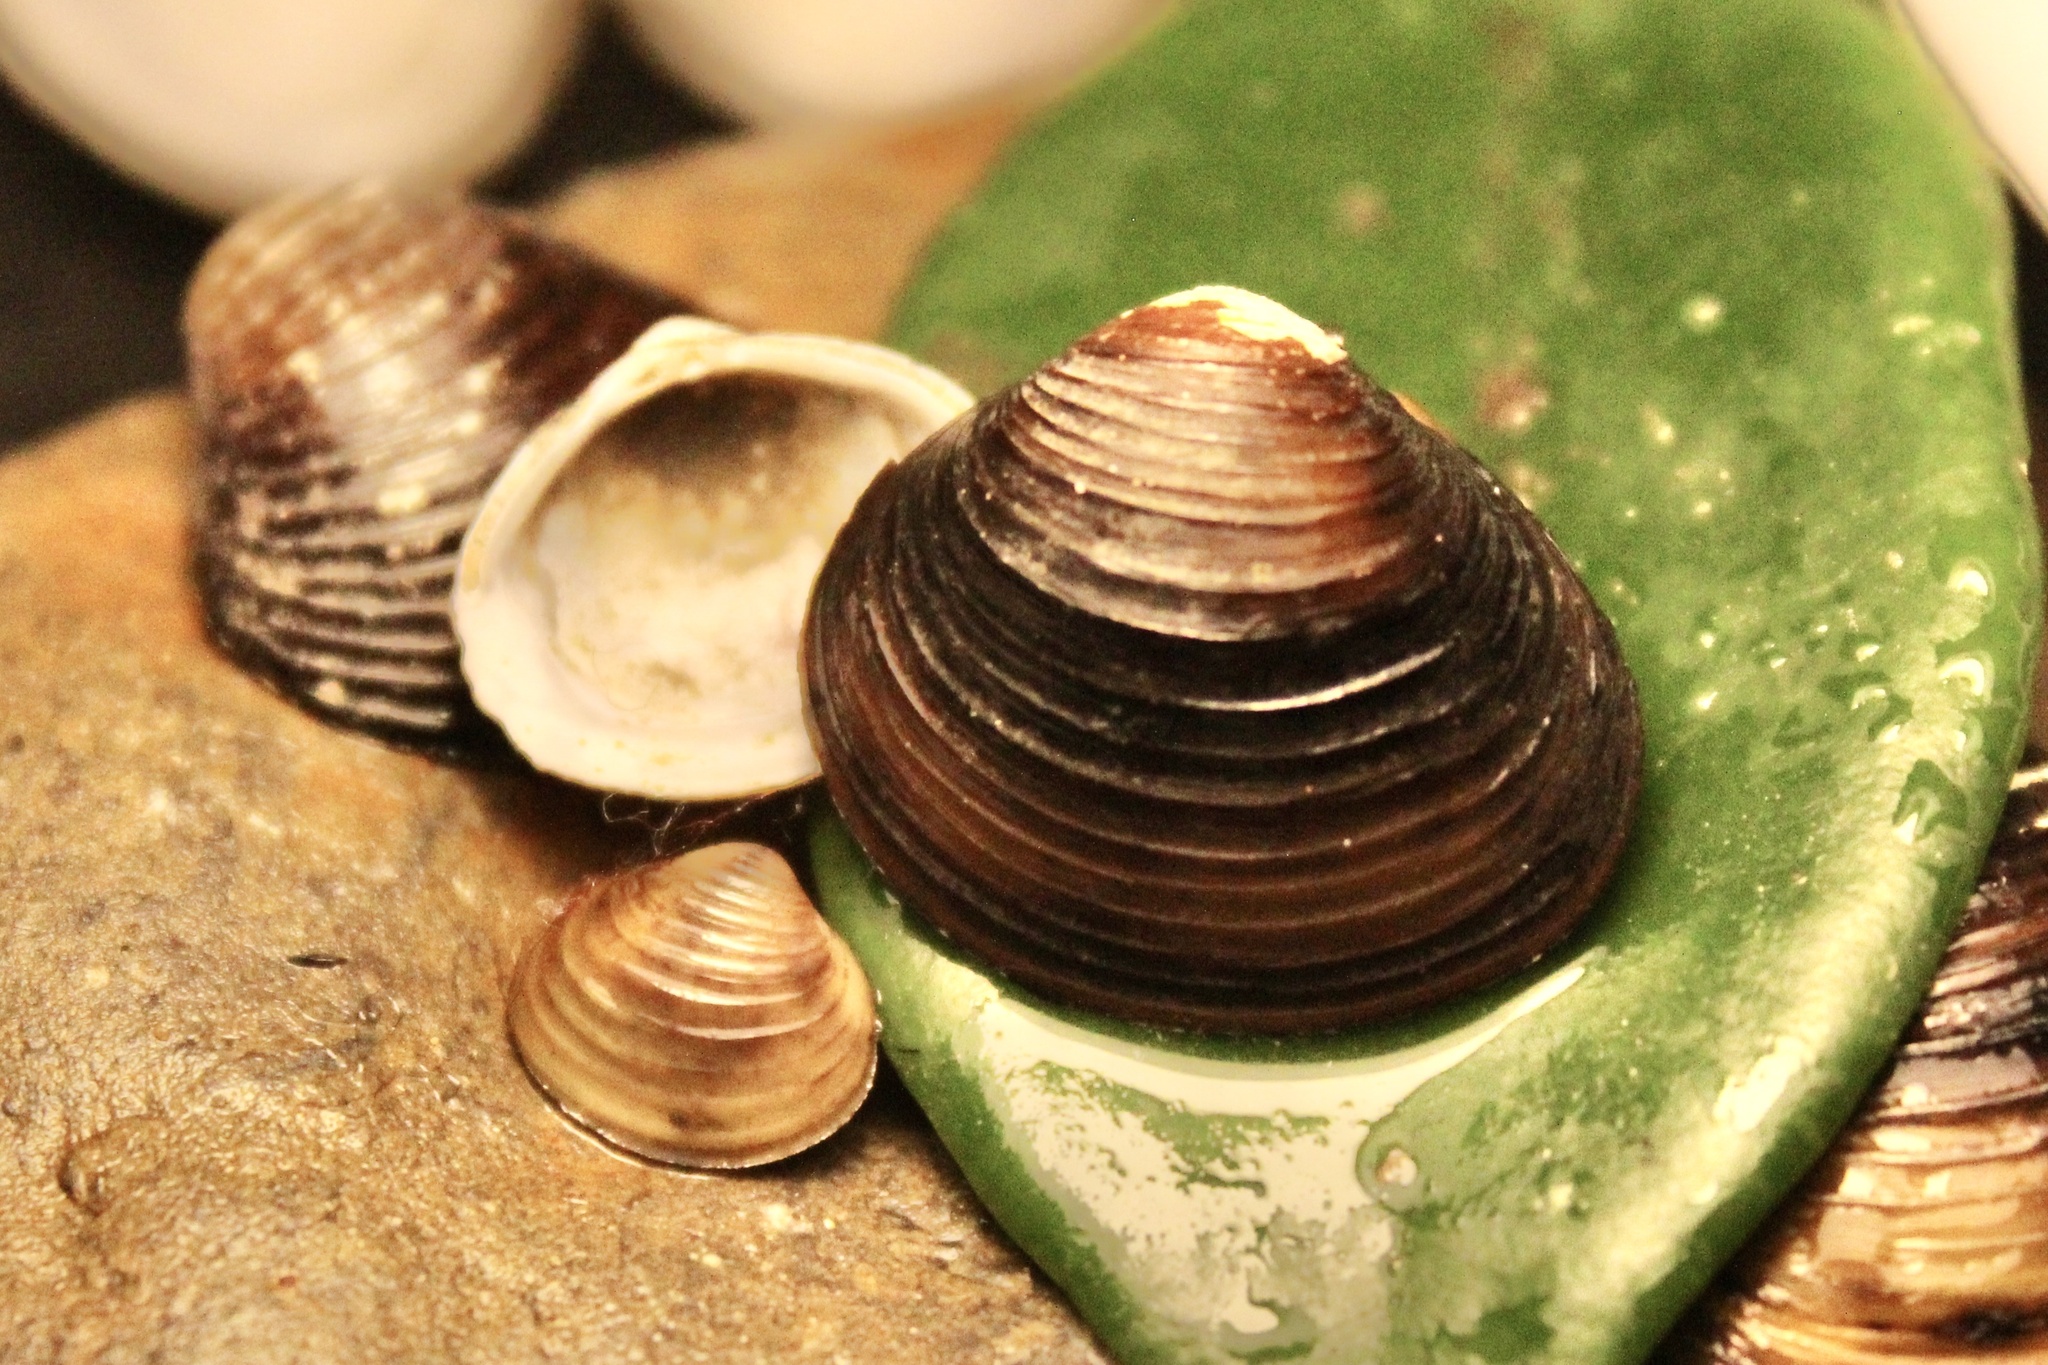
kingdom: Animalia
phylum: Mollusca
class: Bivalvia
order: Venerida
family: Cyrenidae
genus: Corbicula
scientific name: Corbicula fluminea
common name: Asian clam
